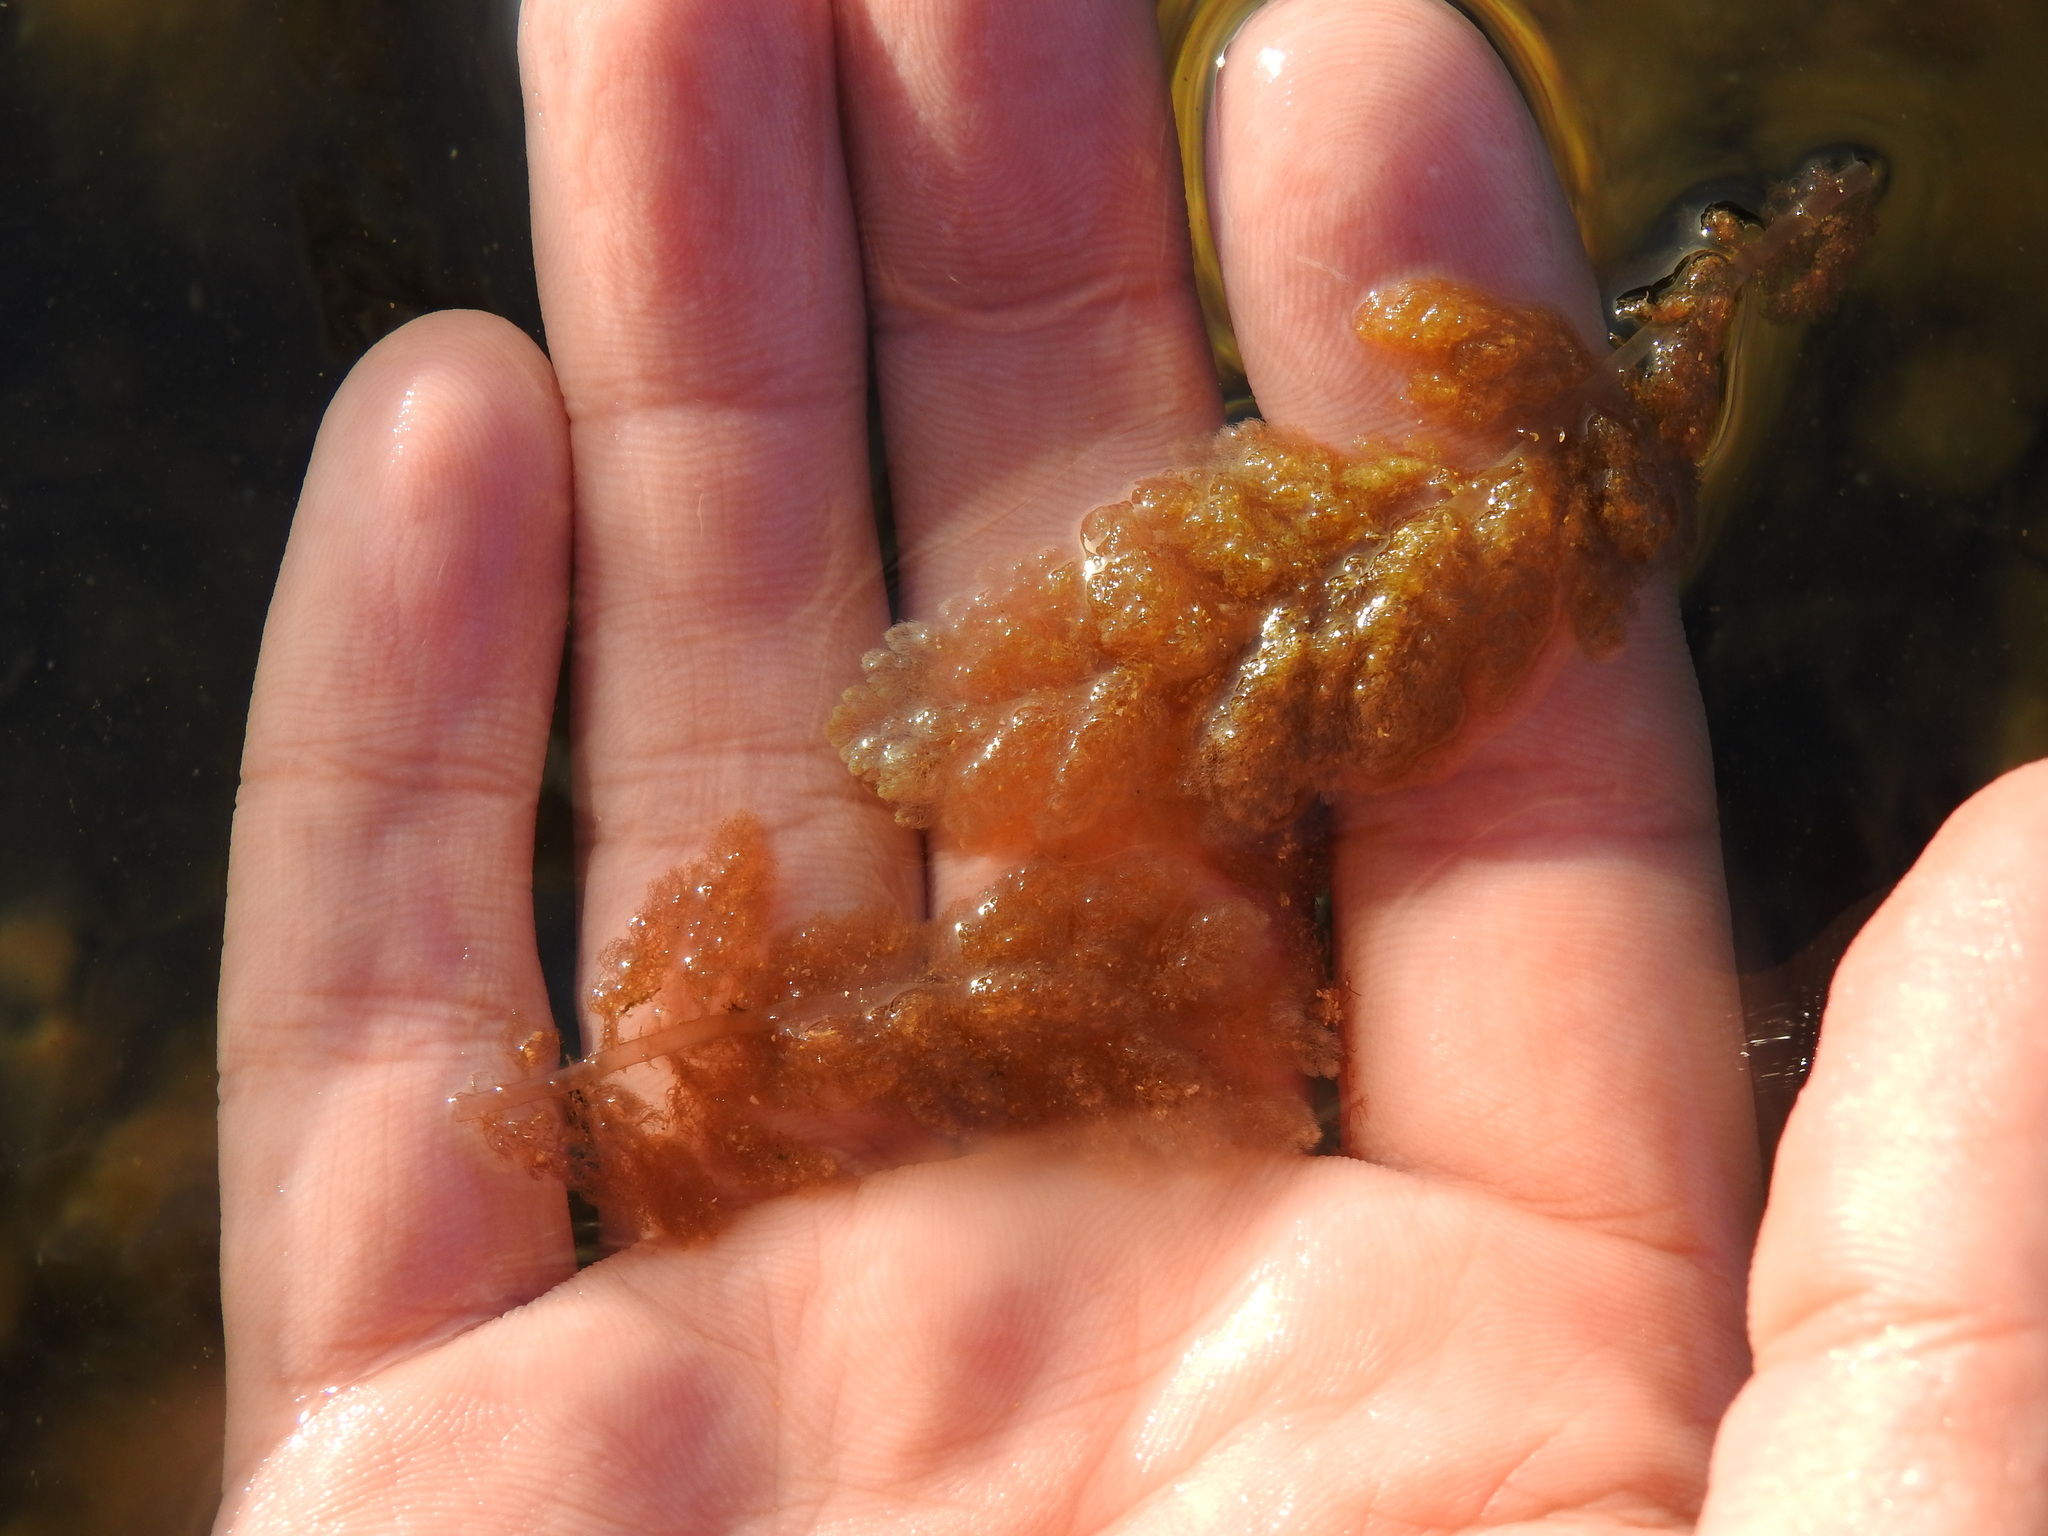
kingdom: Plantae
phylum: Rhodophyta
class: Florideophyceae
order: Bonnemaisoniales
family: Bonnemaisoniaceae
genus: Asparagopsis
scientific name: Asparagopsis taxiformis
